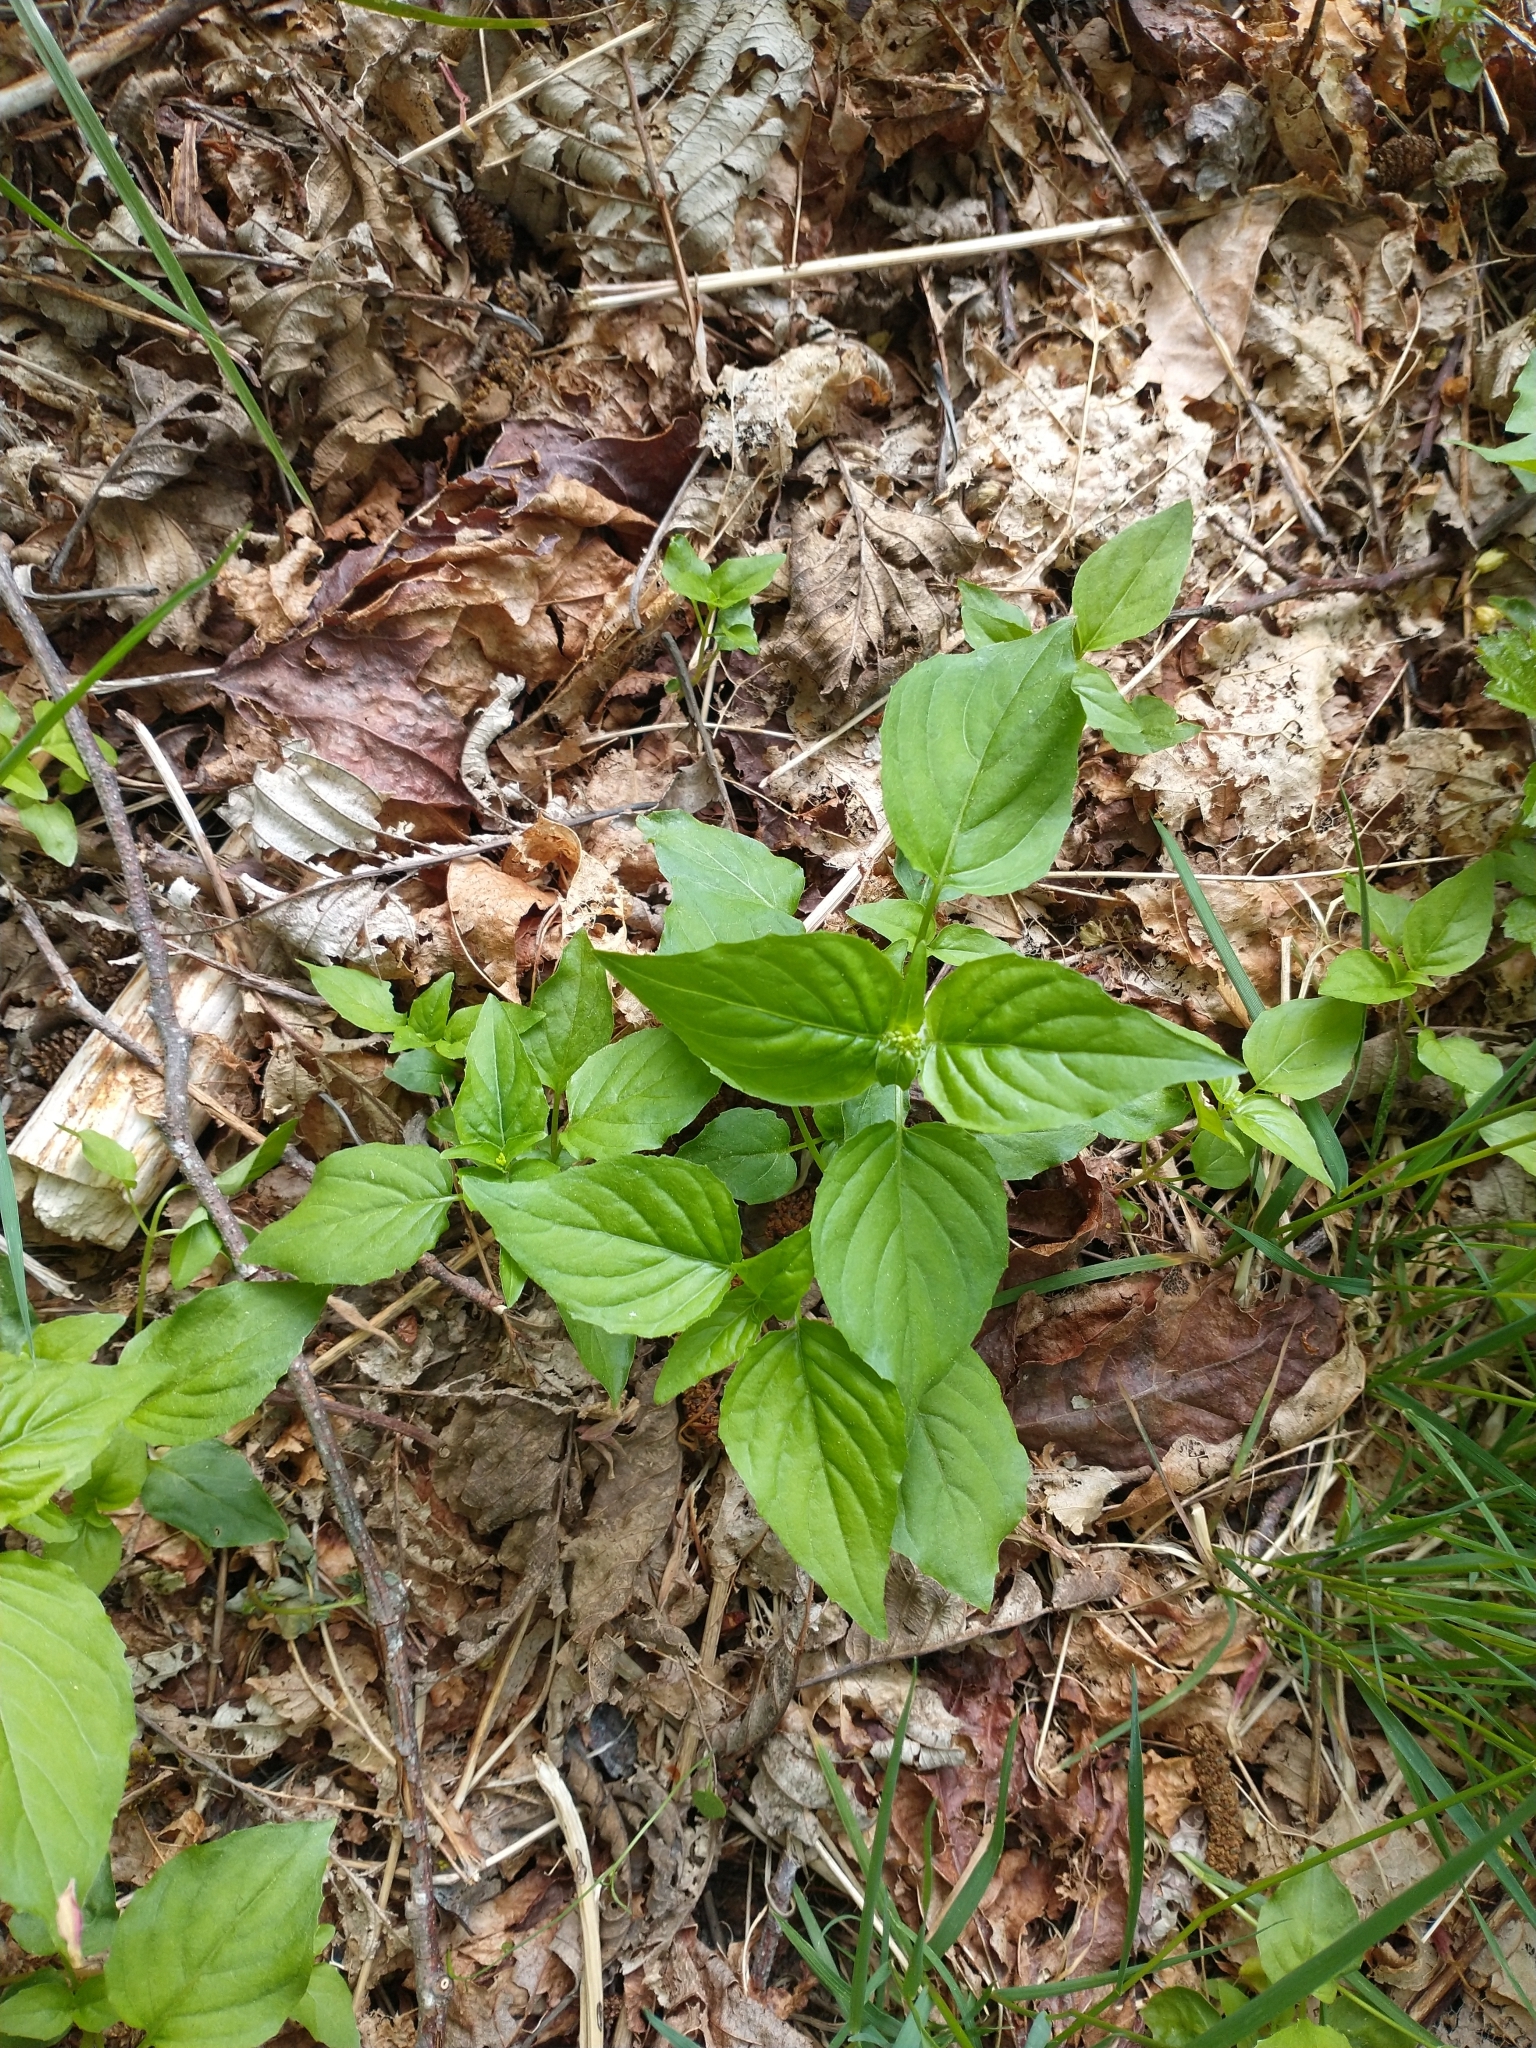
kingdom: Plantae
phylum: Tracheophyta
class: Magnoliopsida
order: Myrtales
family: Onagraceae
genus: Circaea
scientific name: Circaea alpina
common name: Alpine enchanter's-nightshade
